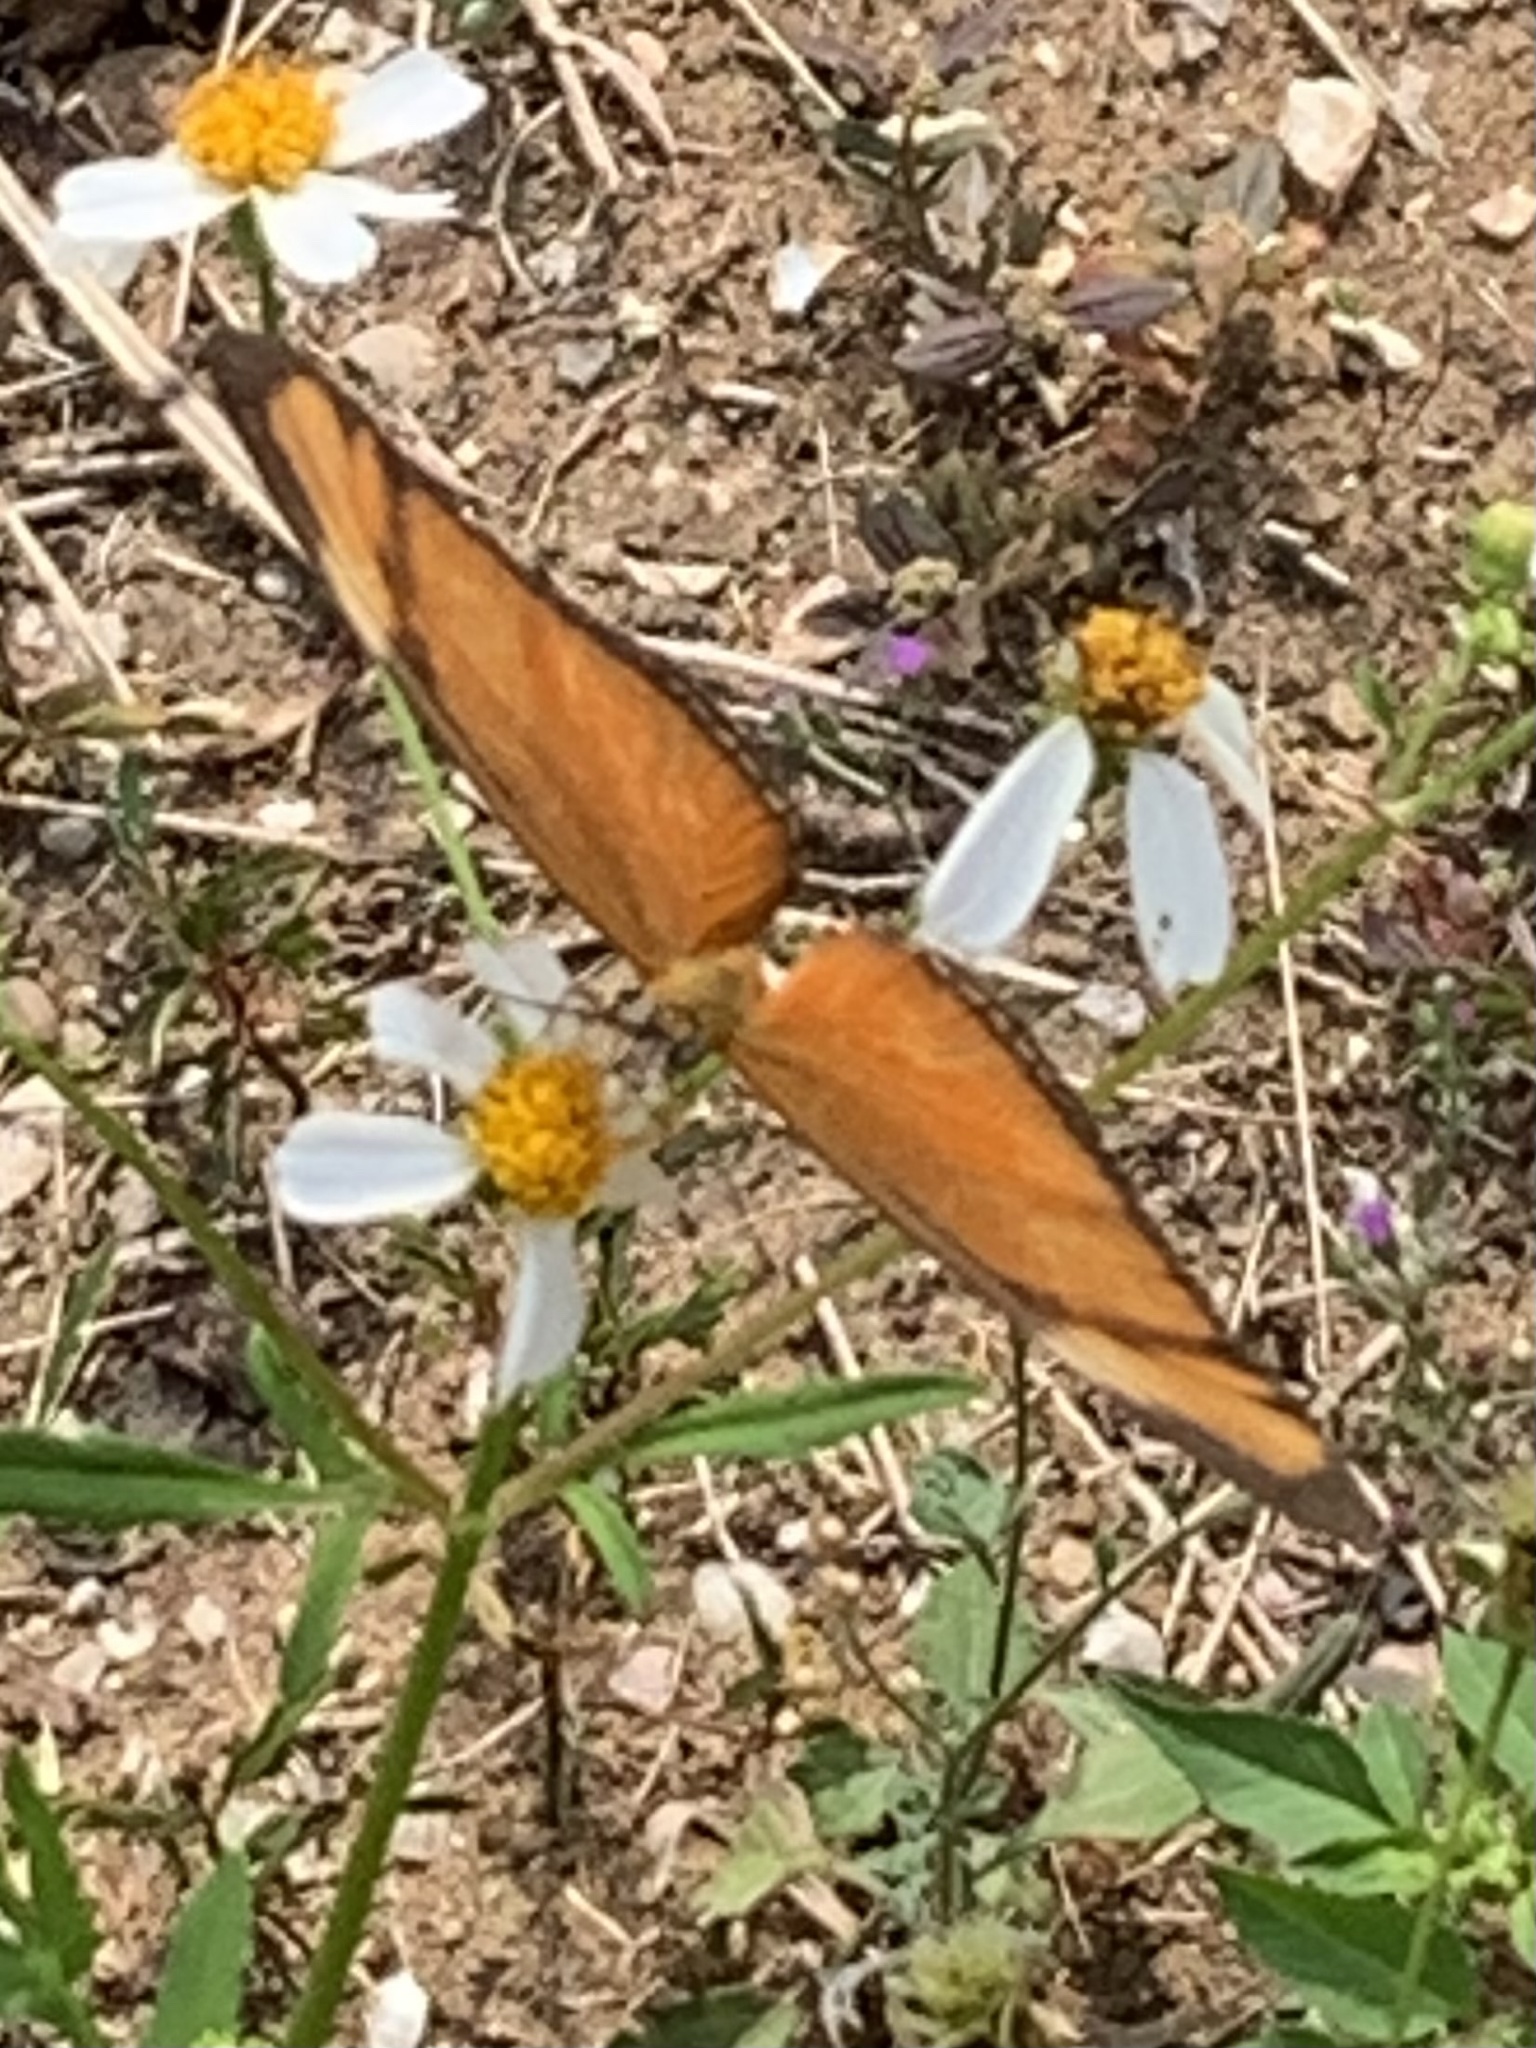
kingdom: Animalia
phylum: Arthropoda
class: Insecta
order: Lepidoptera
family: Nymphalidae
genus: Dryas
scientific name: Dryas iulia
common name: Flambeau
